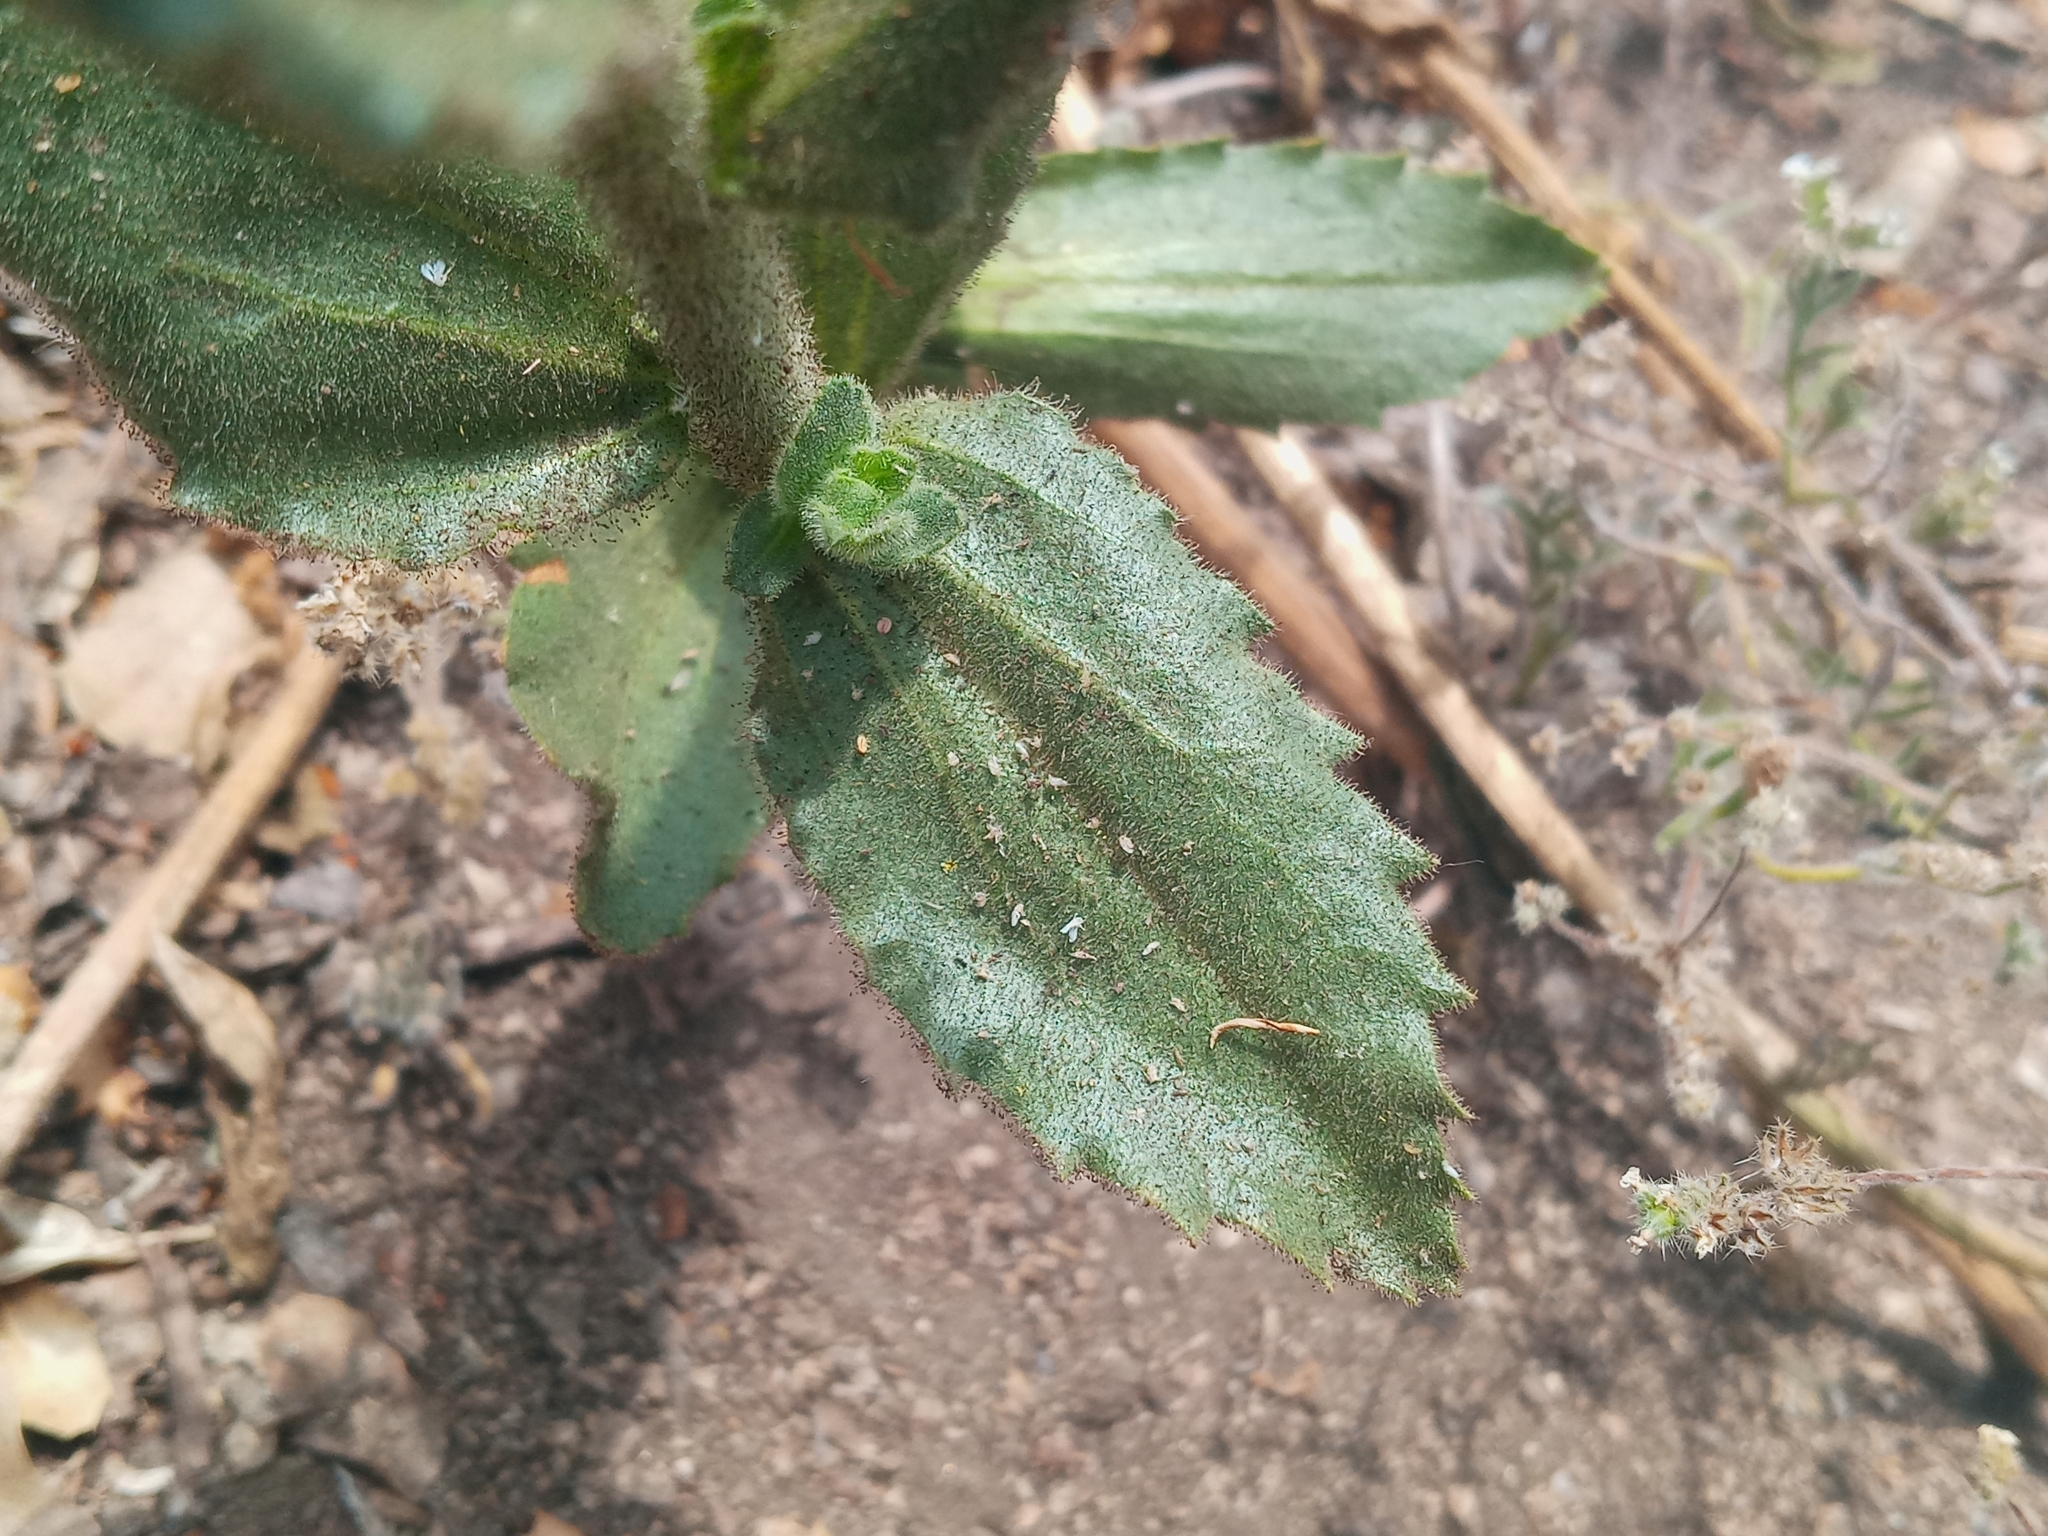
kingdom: Plantae
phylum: Tracheophyta
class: Magnoliopsida
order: Asterales
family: Asteraceae
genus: Hulsea
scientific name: Hulsea heterochroma
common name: Redray alpinegold
